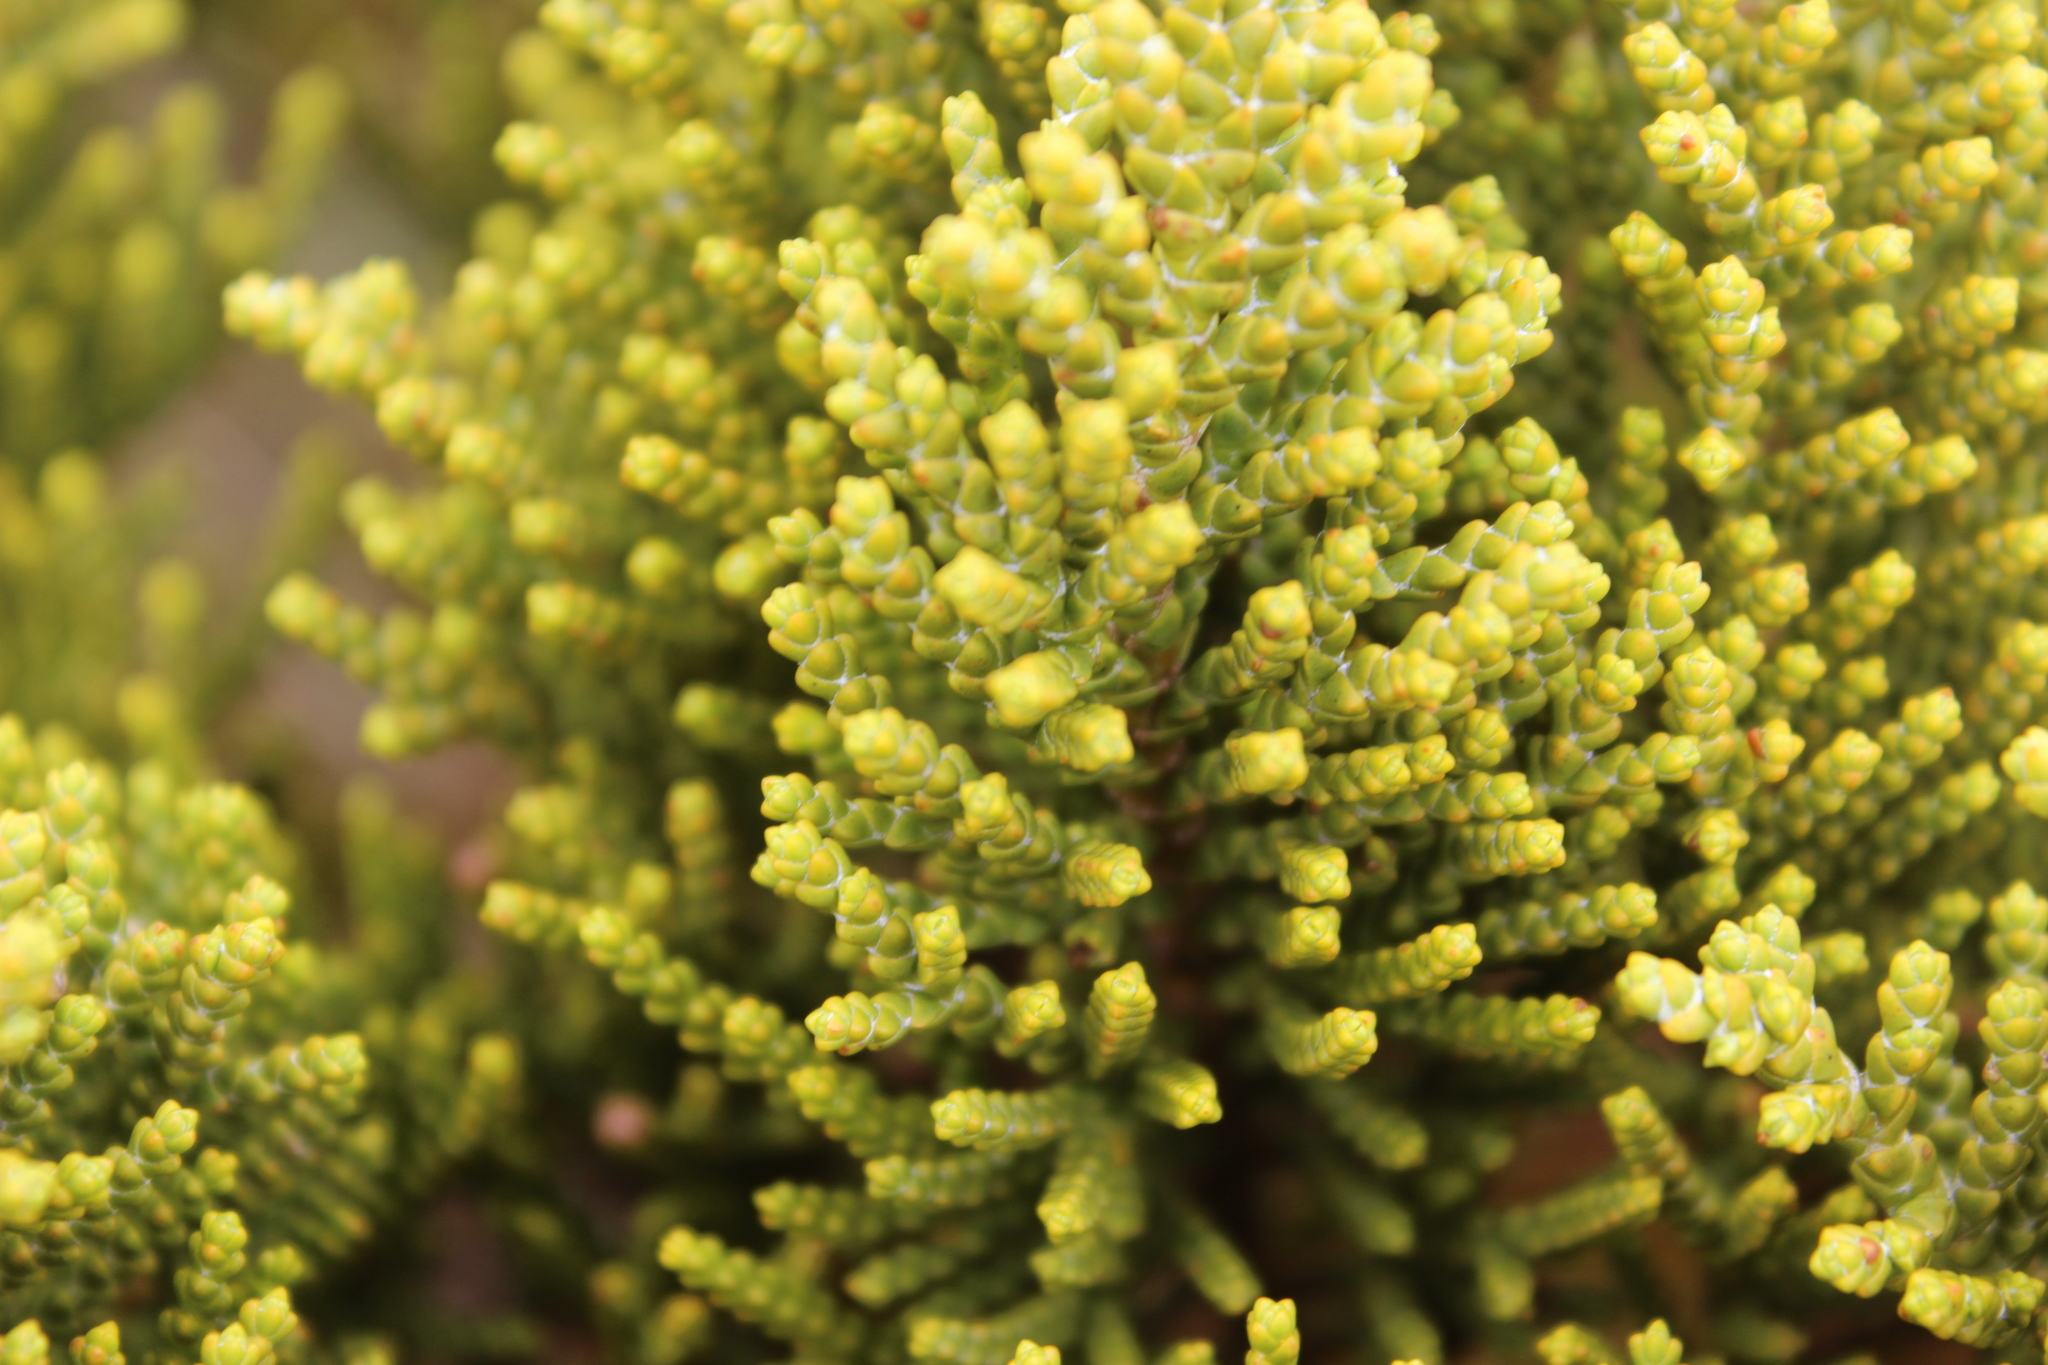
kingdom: Plantae
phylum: Tracheophyta
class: Magnoliopsida
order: Lamiales
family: Plantaginaceae
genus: Veronica
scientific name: Veronica tetragona
